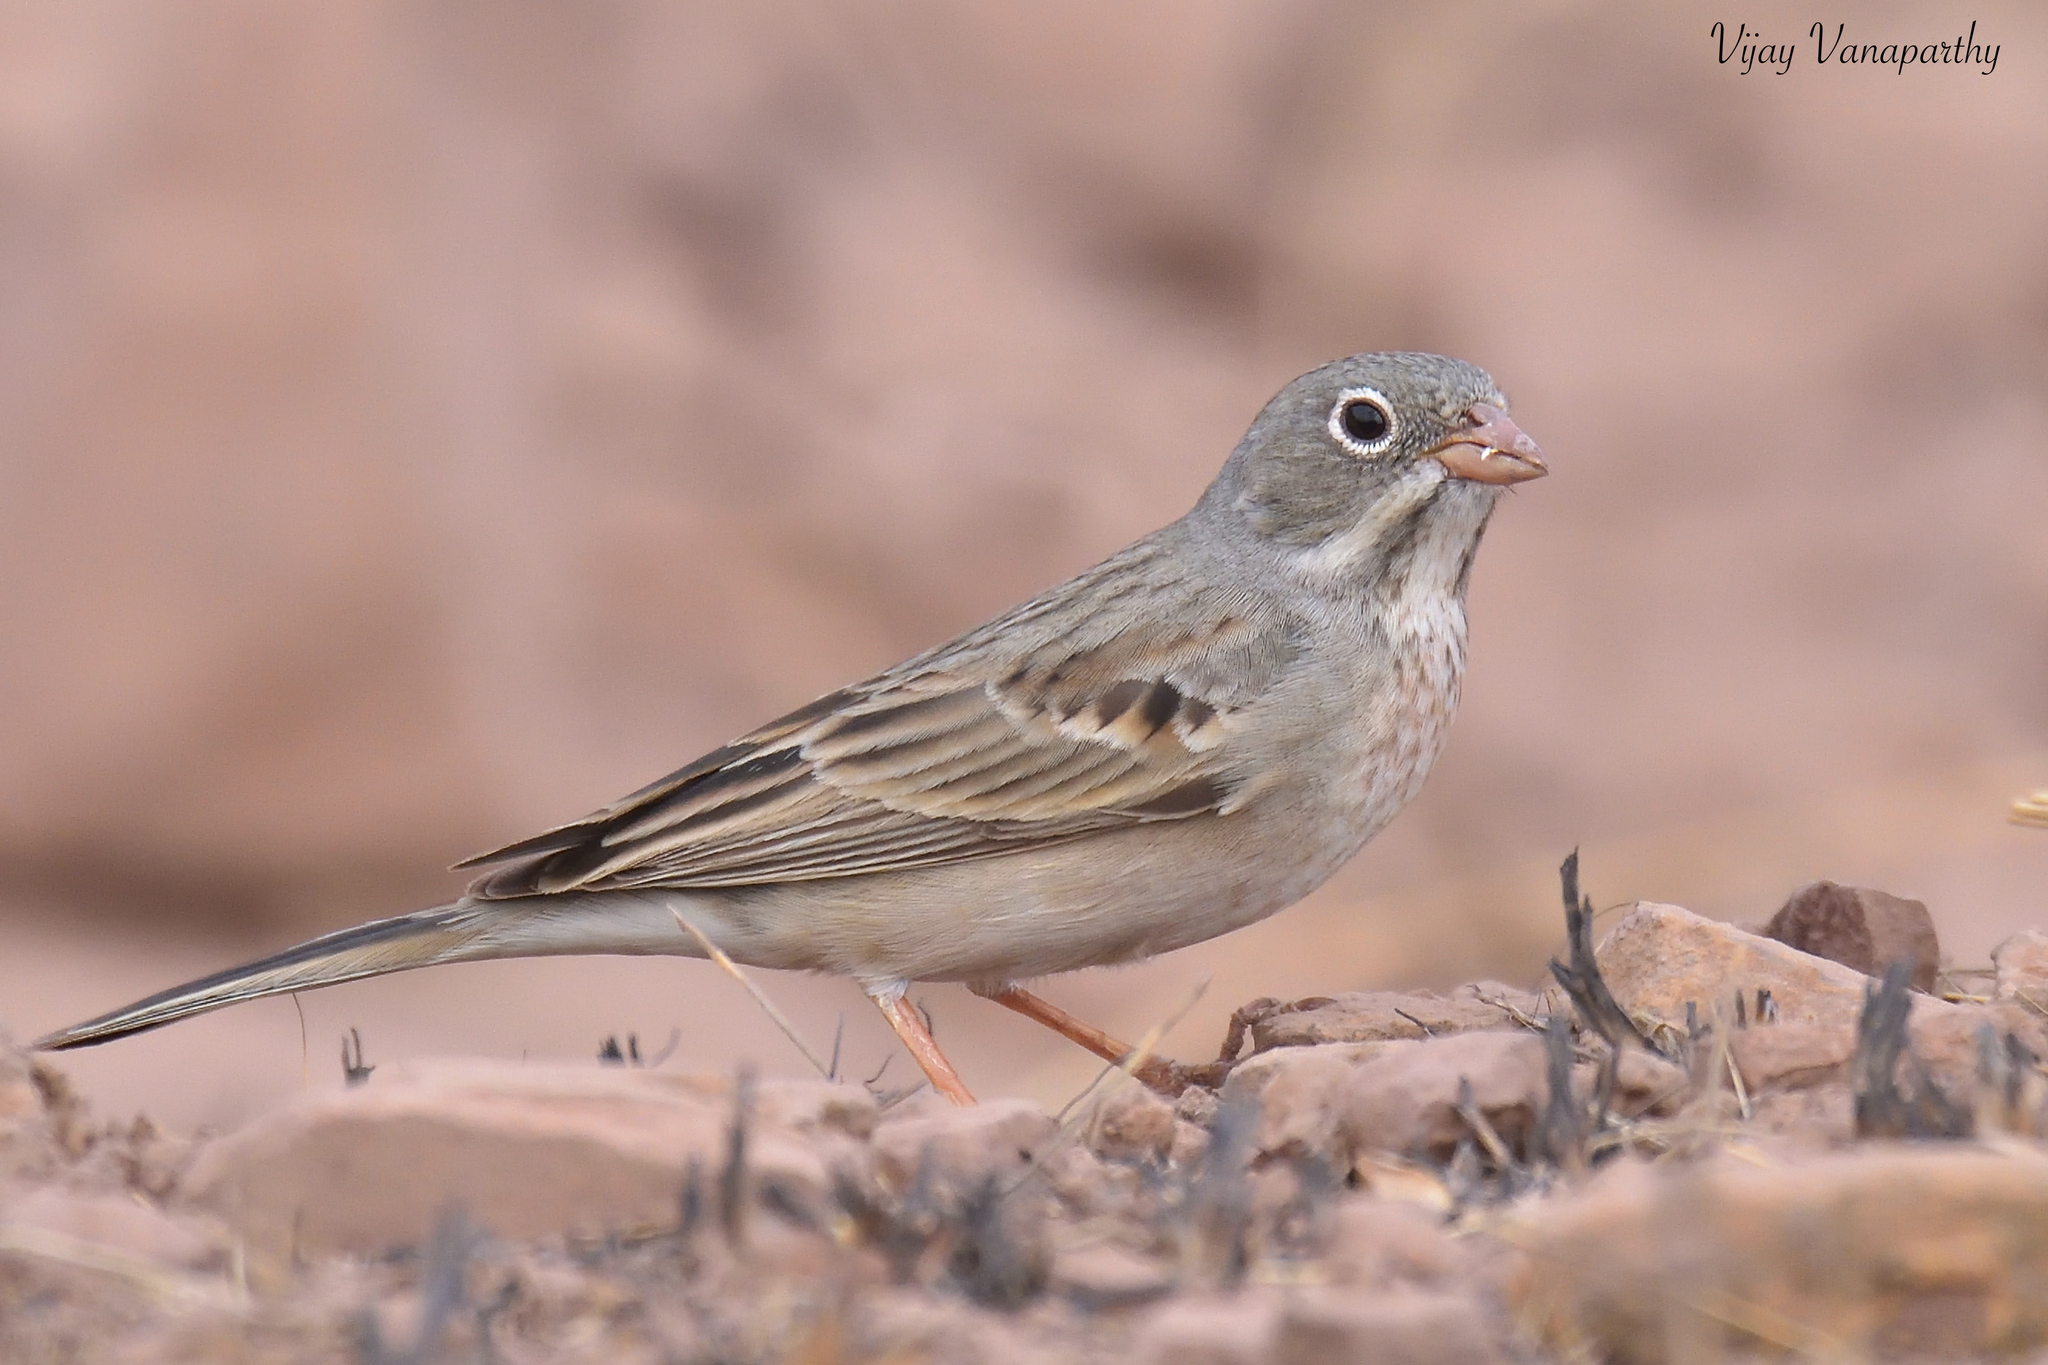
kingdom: Animalia
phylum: Chordata
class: Aves
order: Passeriformes
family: Emberizidae
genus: Emberiza
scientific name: Emberiza buchanani
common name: Grey-necked bunting
